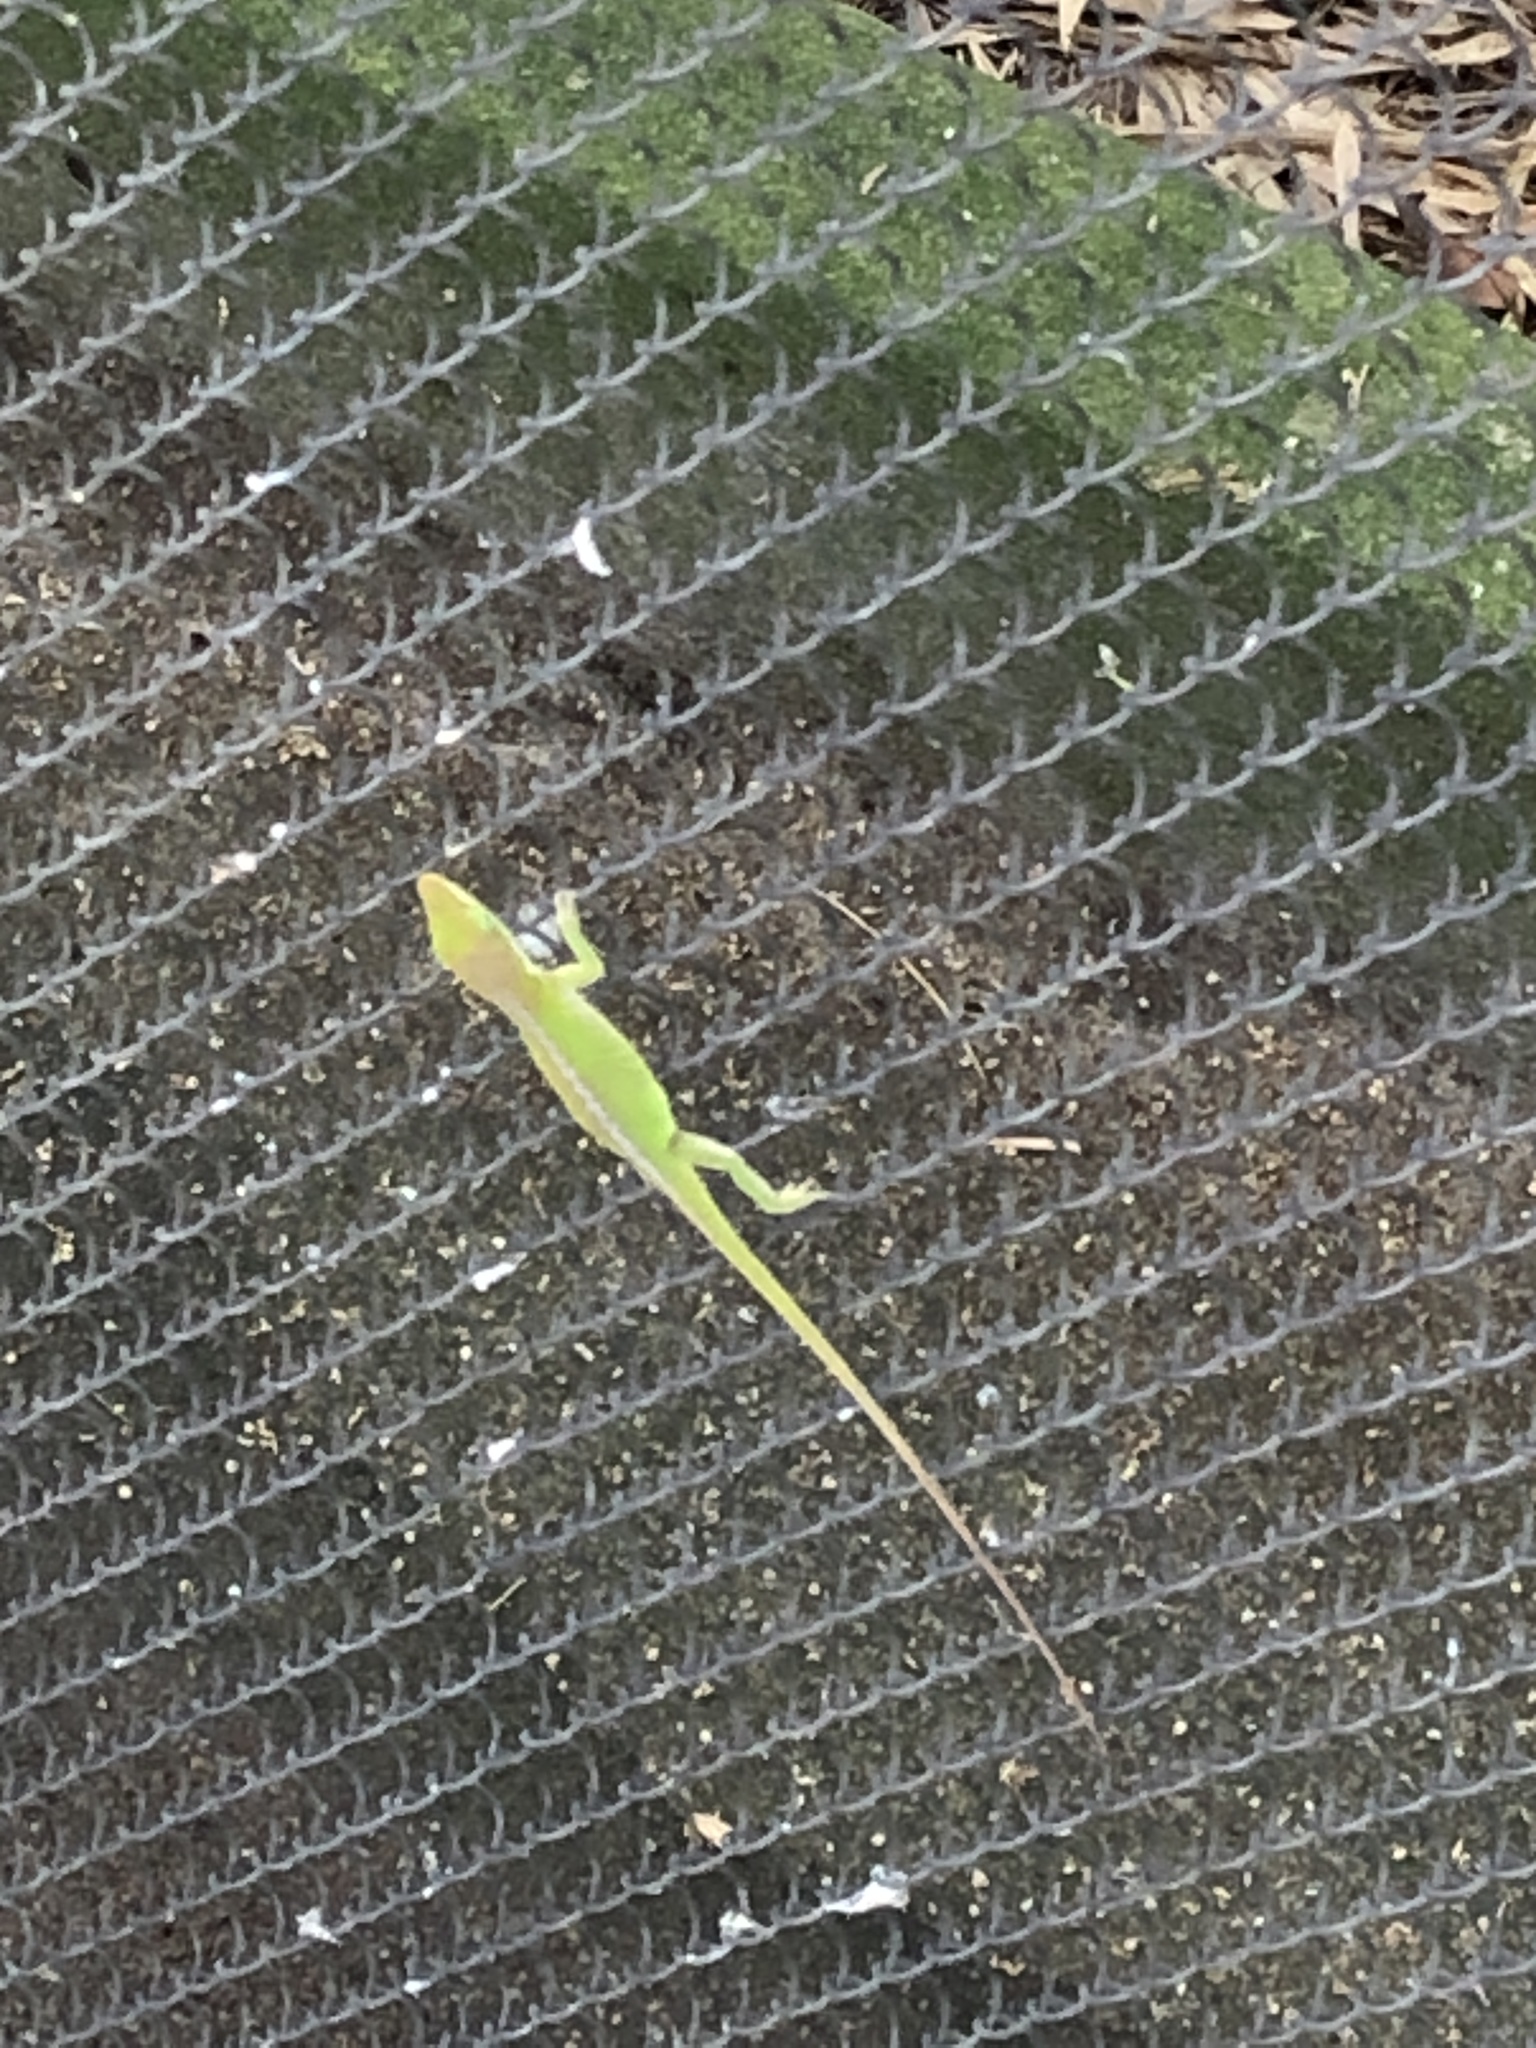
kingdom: Animalia
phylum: Chordata
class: Squamata
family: Dactyloidae
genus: Anolis
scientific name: Anolis carolinensis
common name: Green anole
